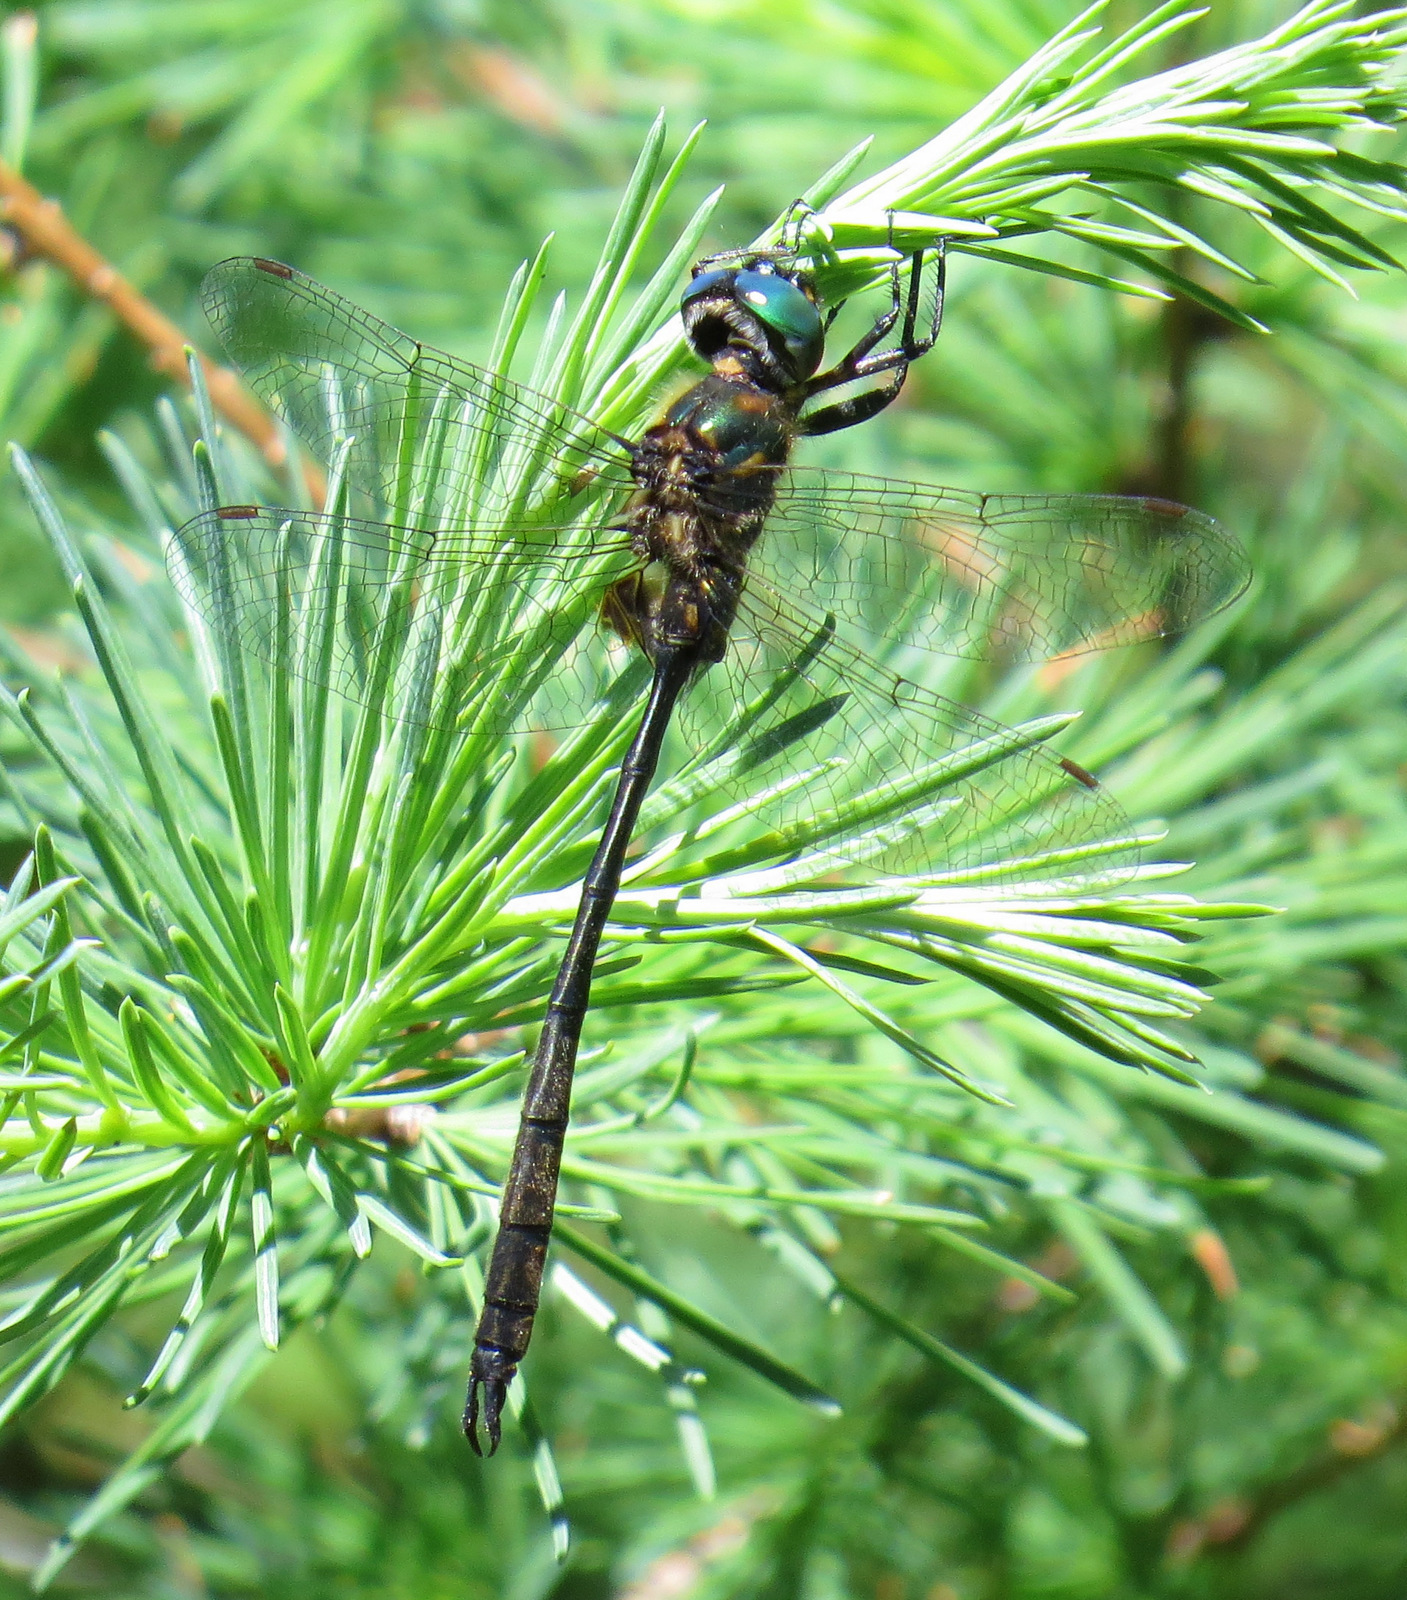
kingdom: Animalia
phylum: Arthropoda
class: Insecta
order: Odonata
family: Corduliidae
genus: Somatochlora
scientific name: Somatochlora franklini
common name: Delicate emerald
